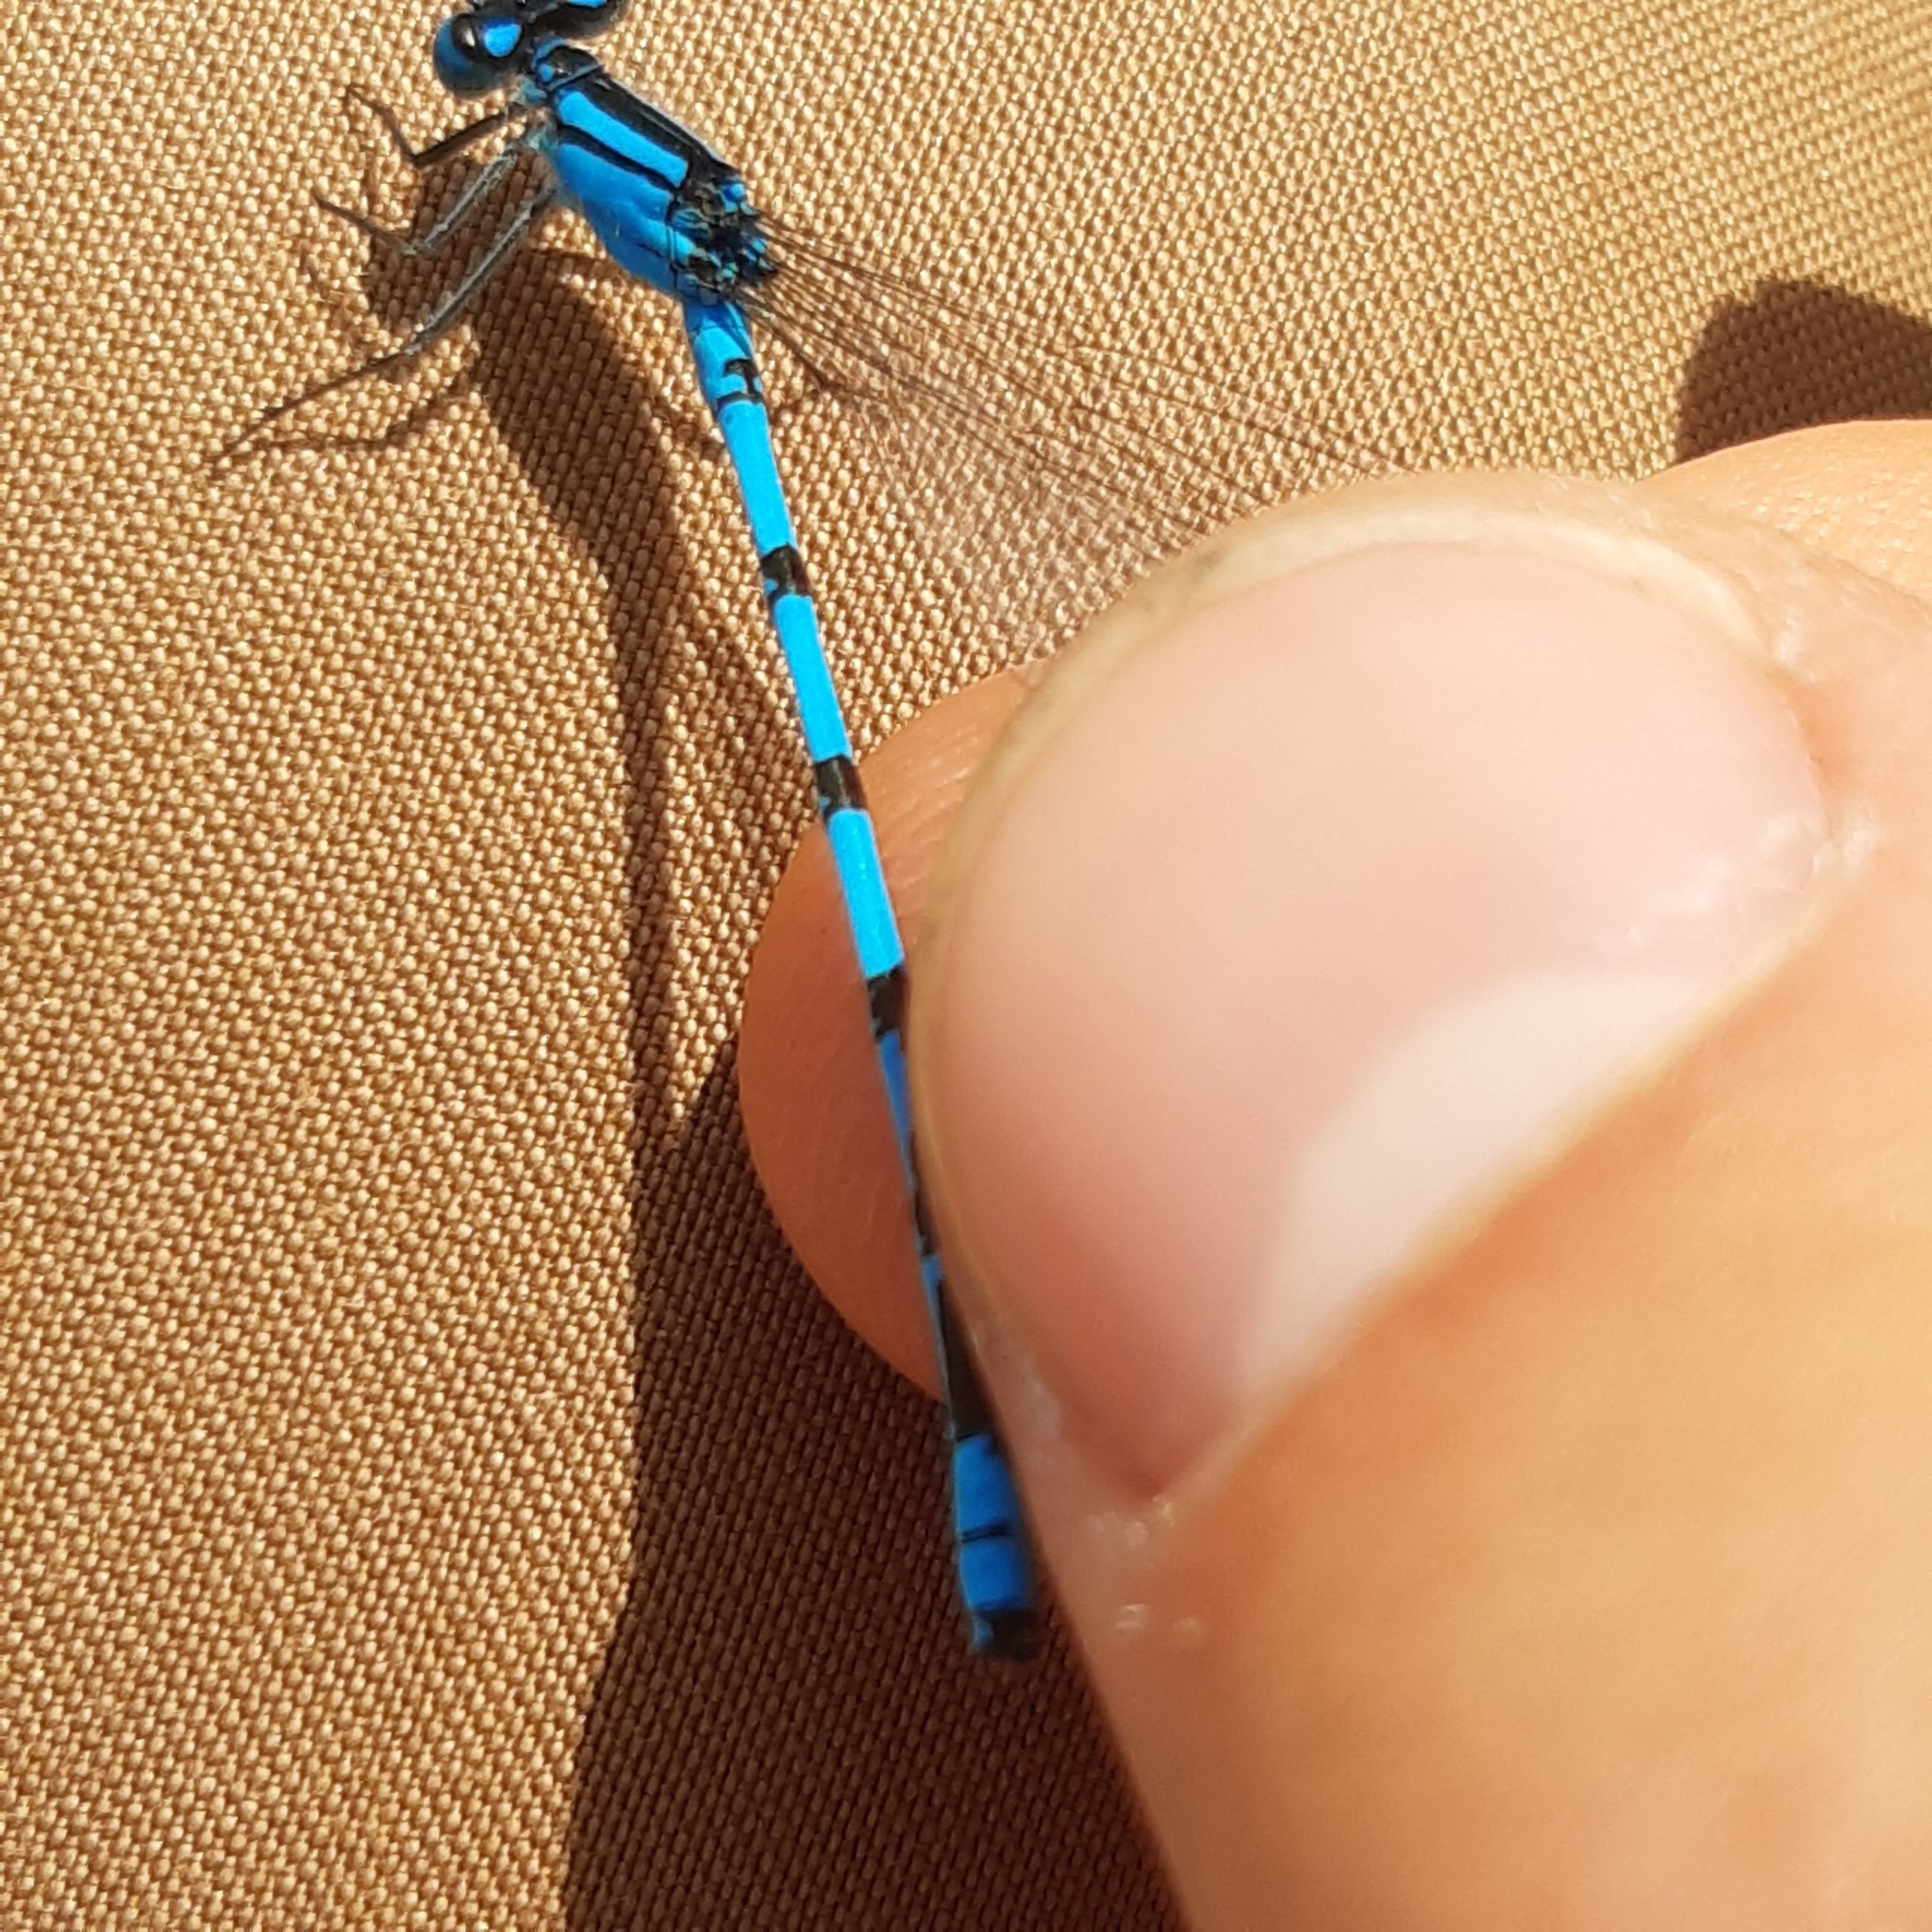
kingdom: Animalia
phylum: Arthropoda
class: Insecta
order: Odonata
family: Coenagrionidae
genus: Enallagma
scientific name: Enallagma cyathigerum
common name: Common blue damselfly
